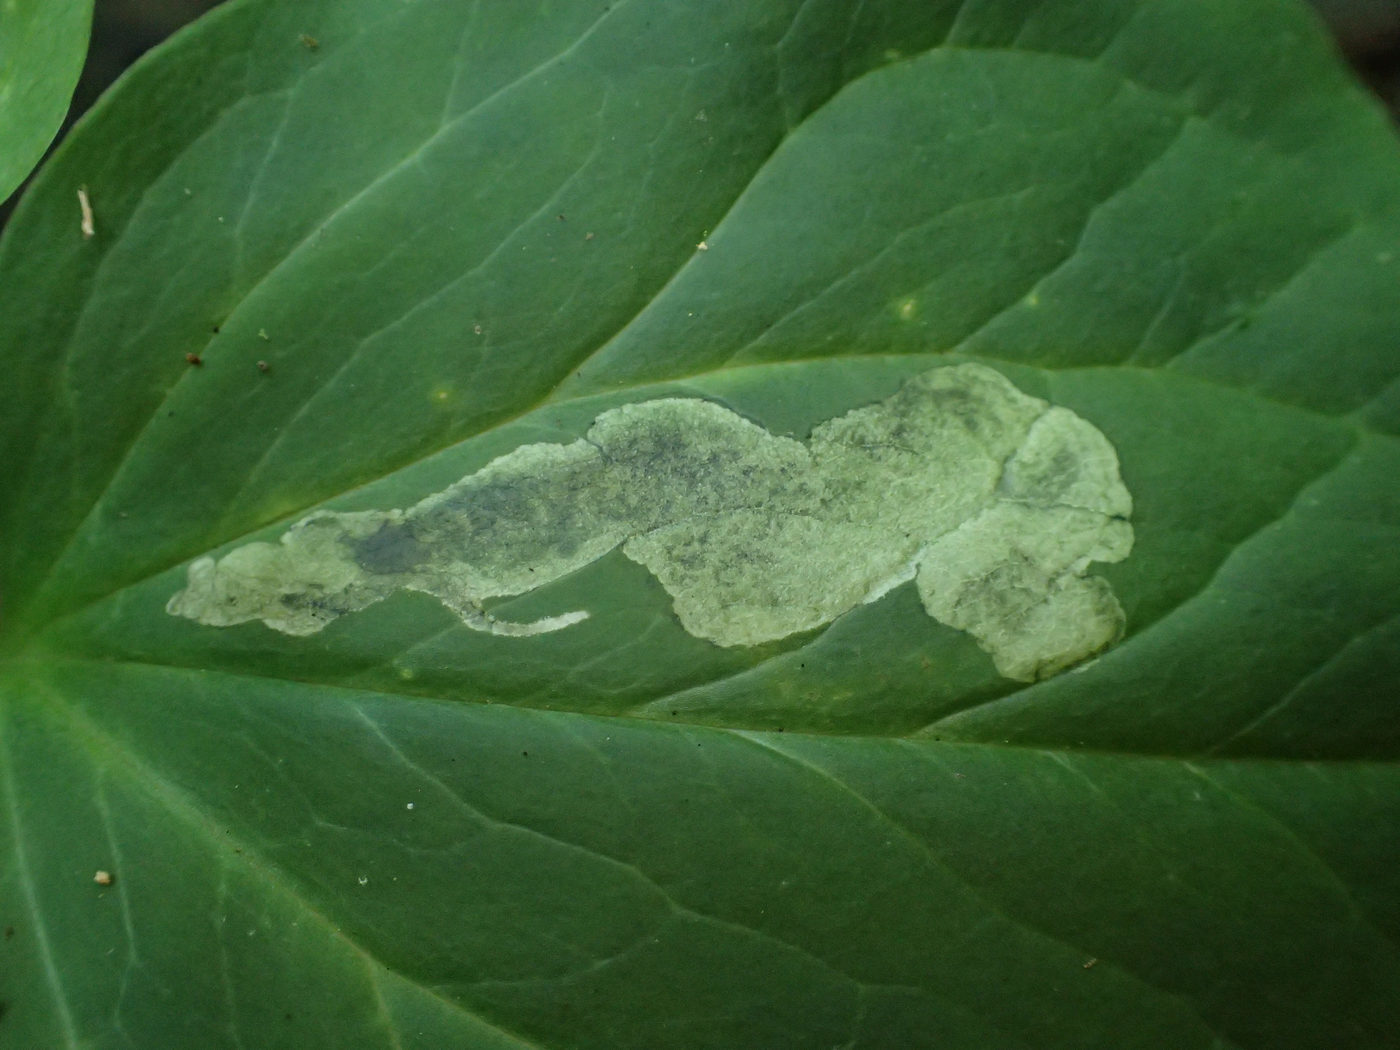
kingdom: Animalia
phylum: Arthropoda
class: Insecta
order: Diptera
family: Scathophagidae
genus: Leptopa
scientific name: Leptopa
